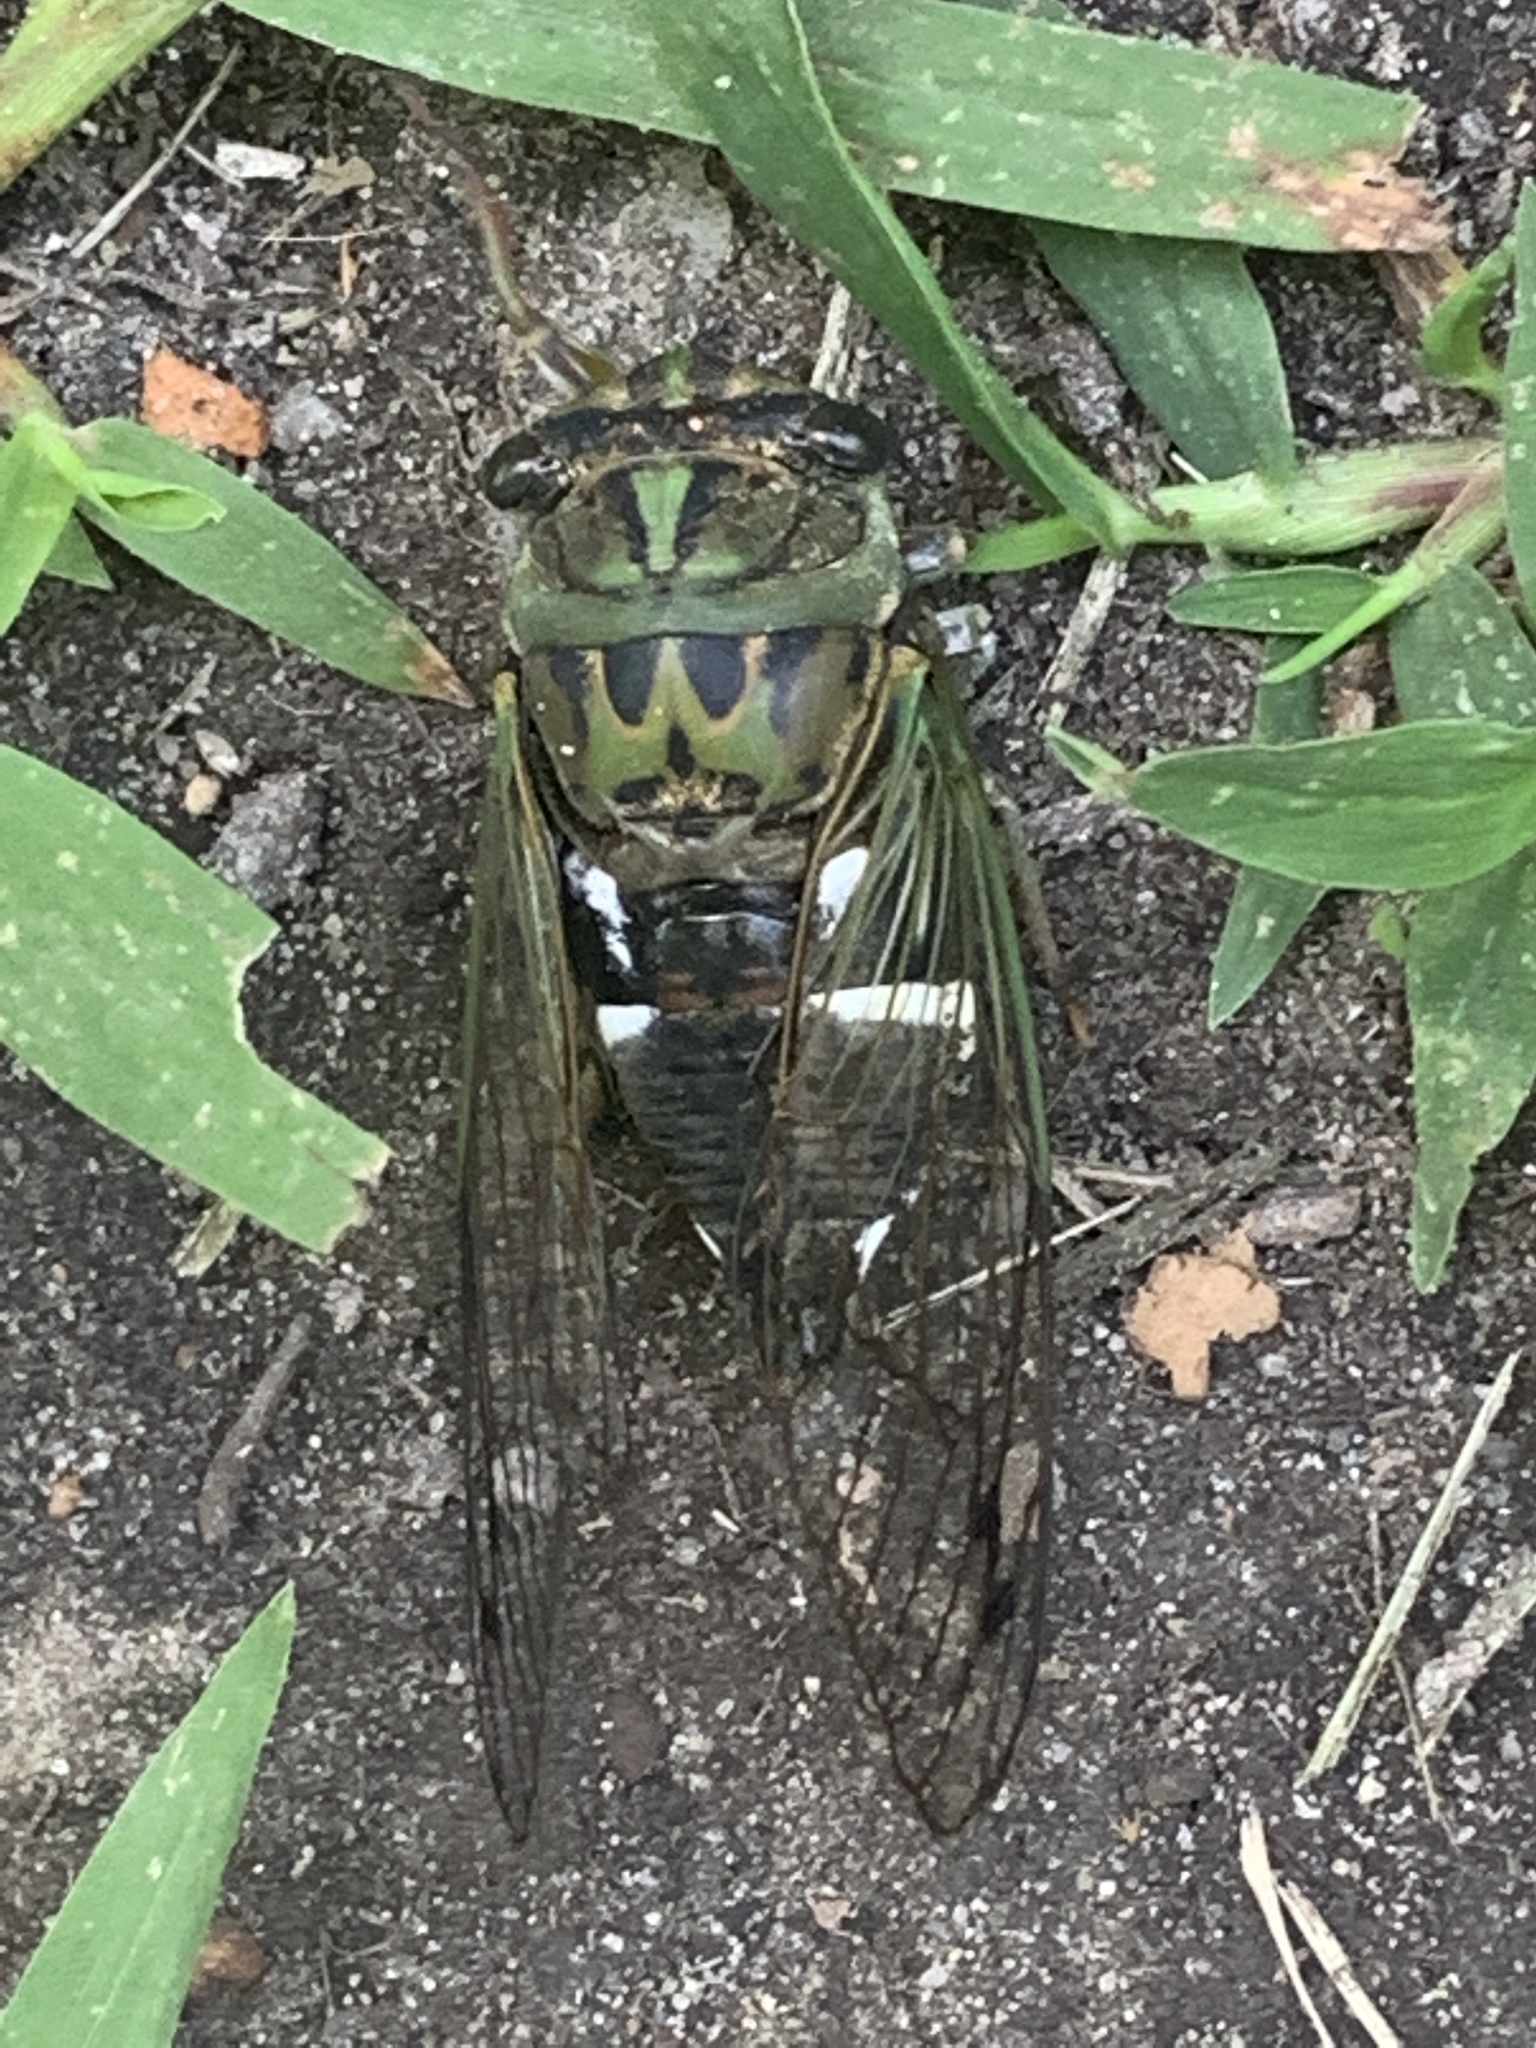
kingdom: Animalia
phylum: Arthropoda
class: Insecta
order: Hemiptera
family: Cicadidae
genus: Neotibicen
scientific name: Neotibicen latifasciatus
